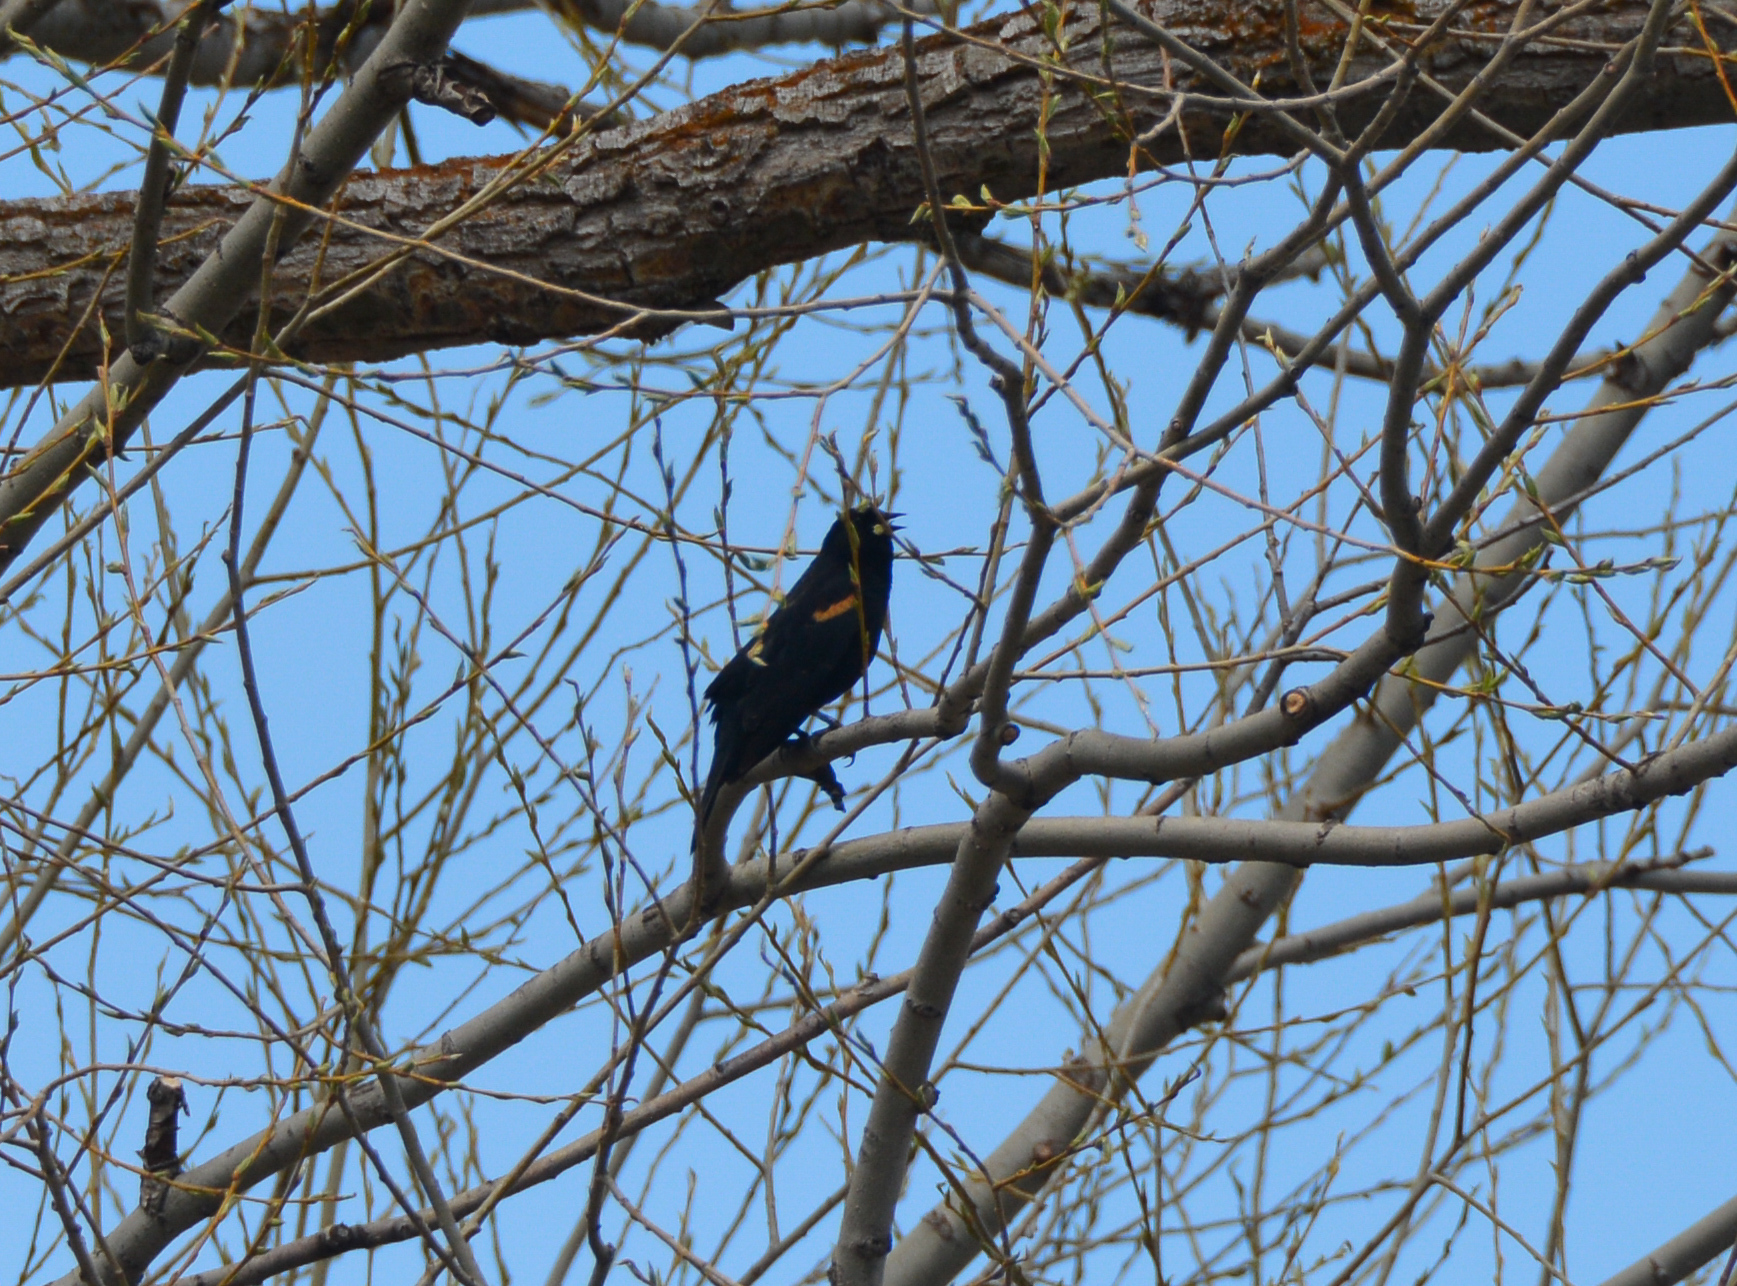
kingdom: Animalia
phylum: Chordata
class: Aves
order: Passeriformes
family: Icteridae
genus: Agelaius
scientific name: Agelaius phoeniceus
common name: Red-winged blackbird
